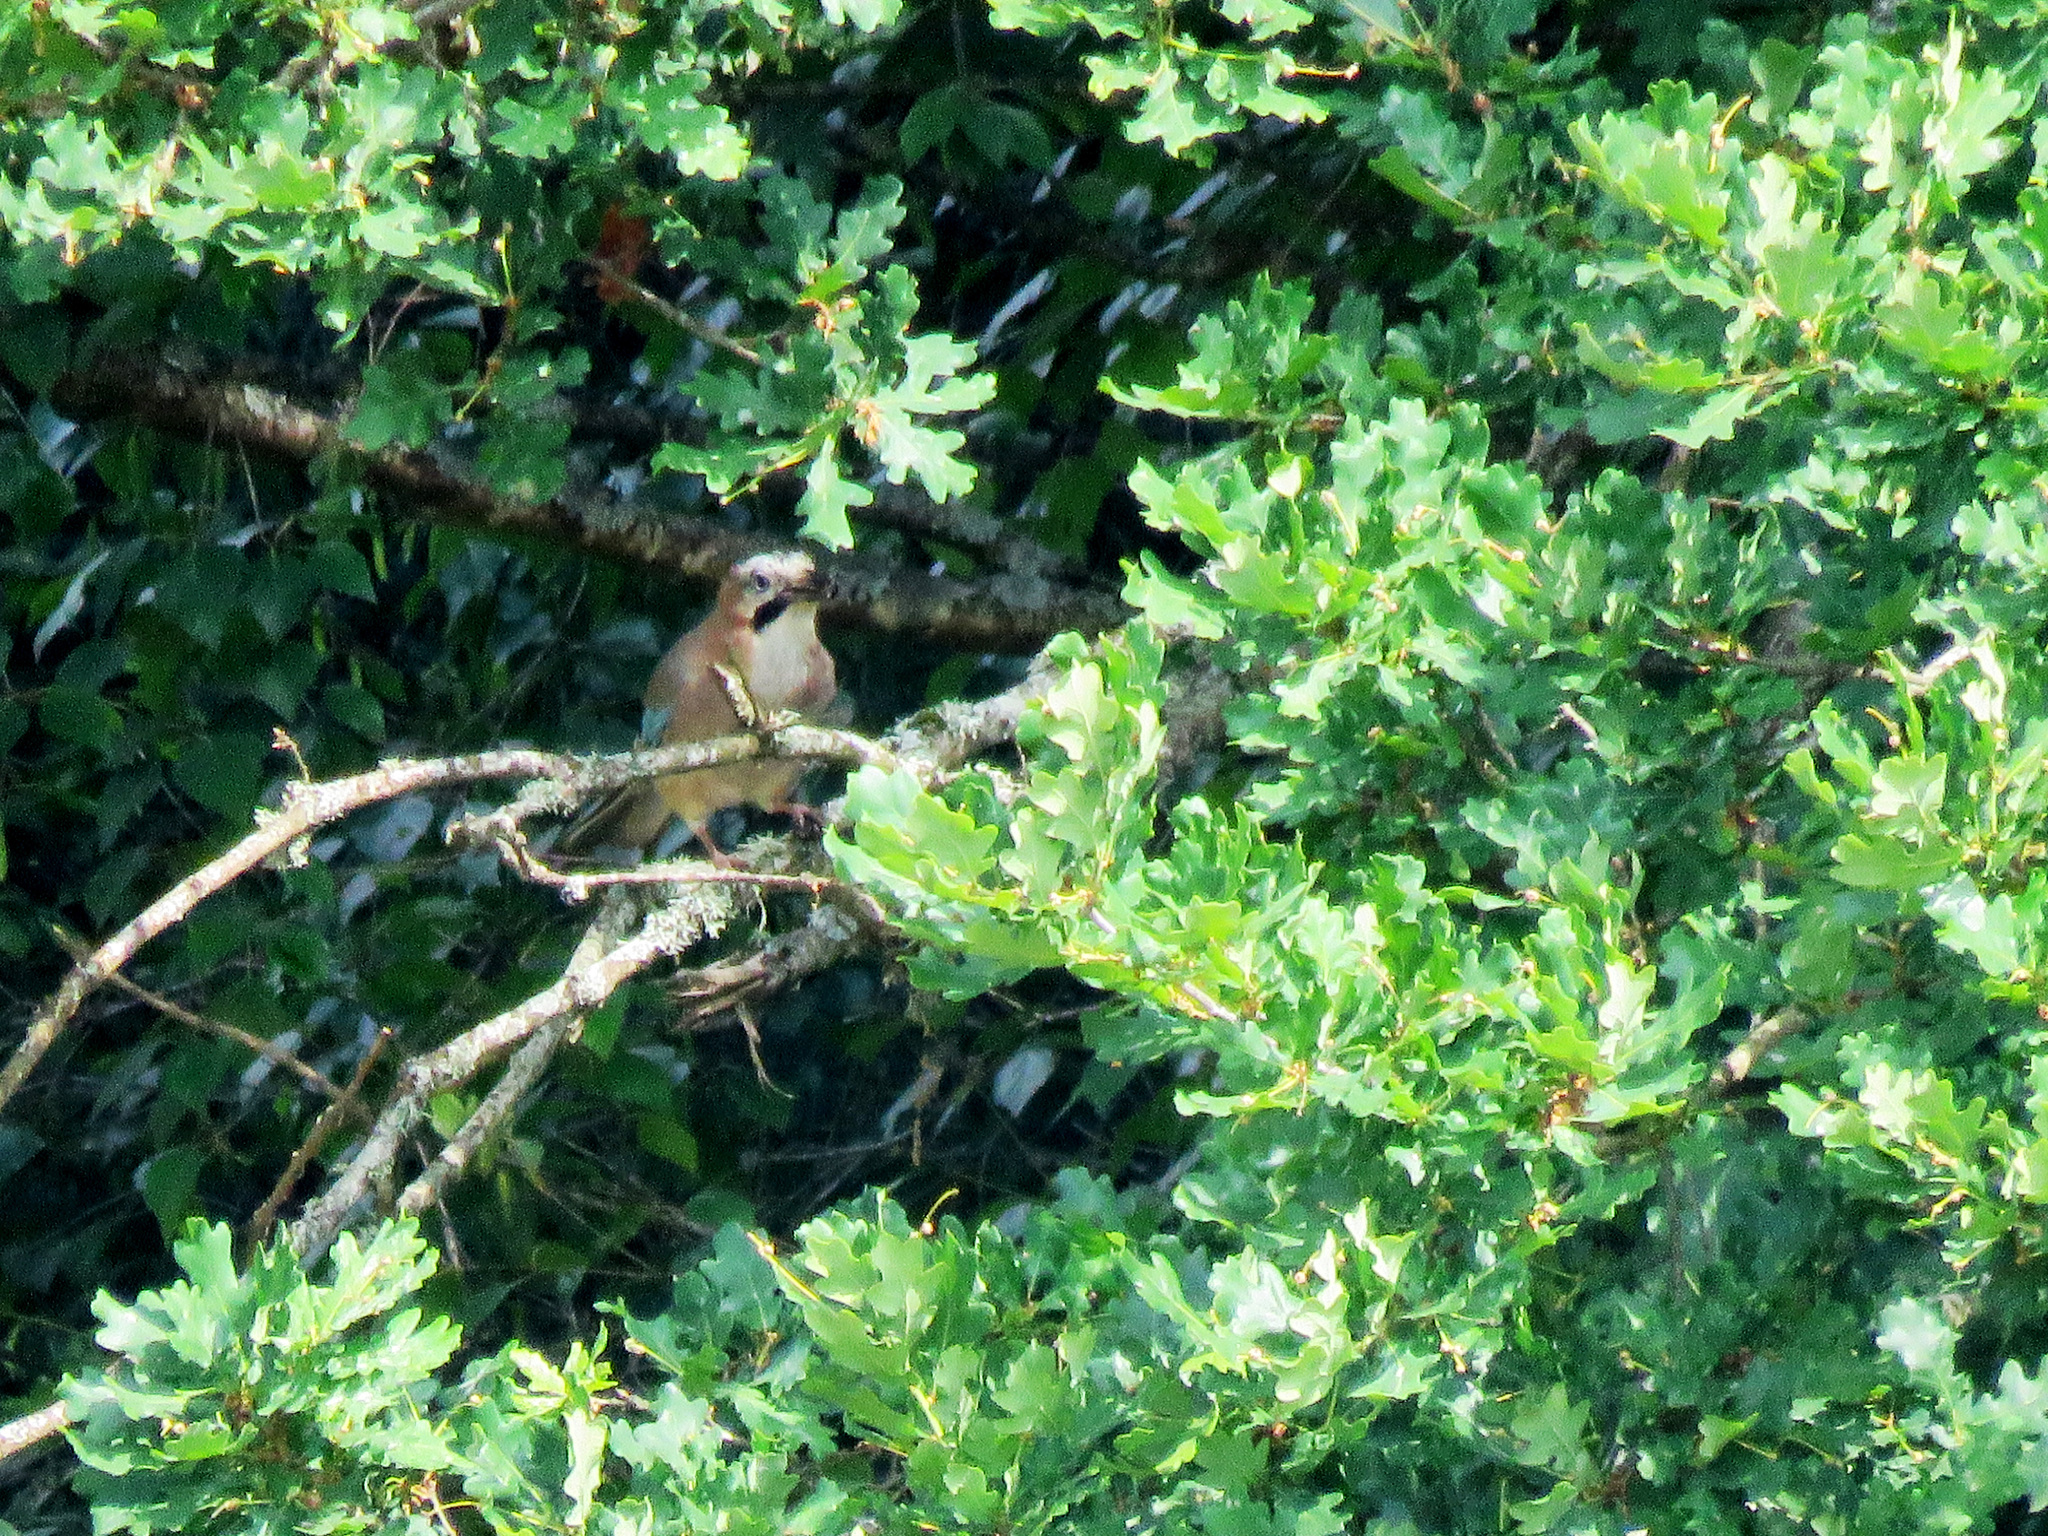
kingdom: Animalia
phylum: Chordata
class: Aves
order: Passeriformes
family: Corvidae
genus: Garrulus
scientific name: Garrulus glandarius
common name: Eurasian jay
